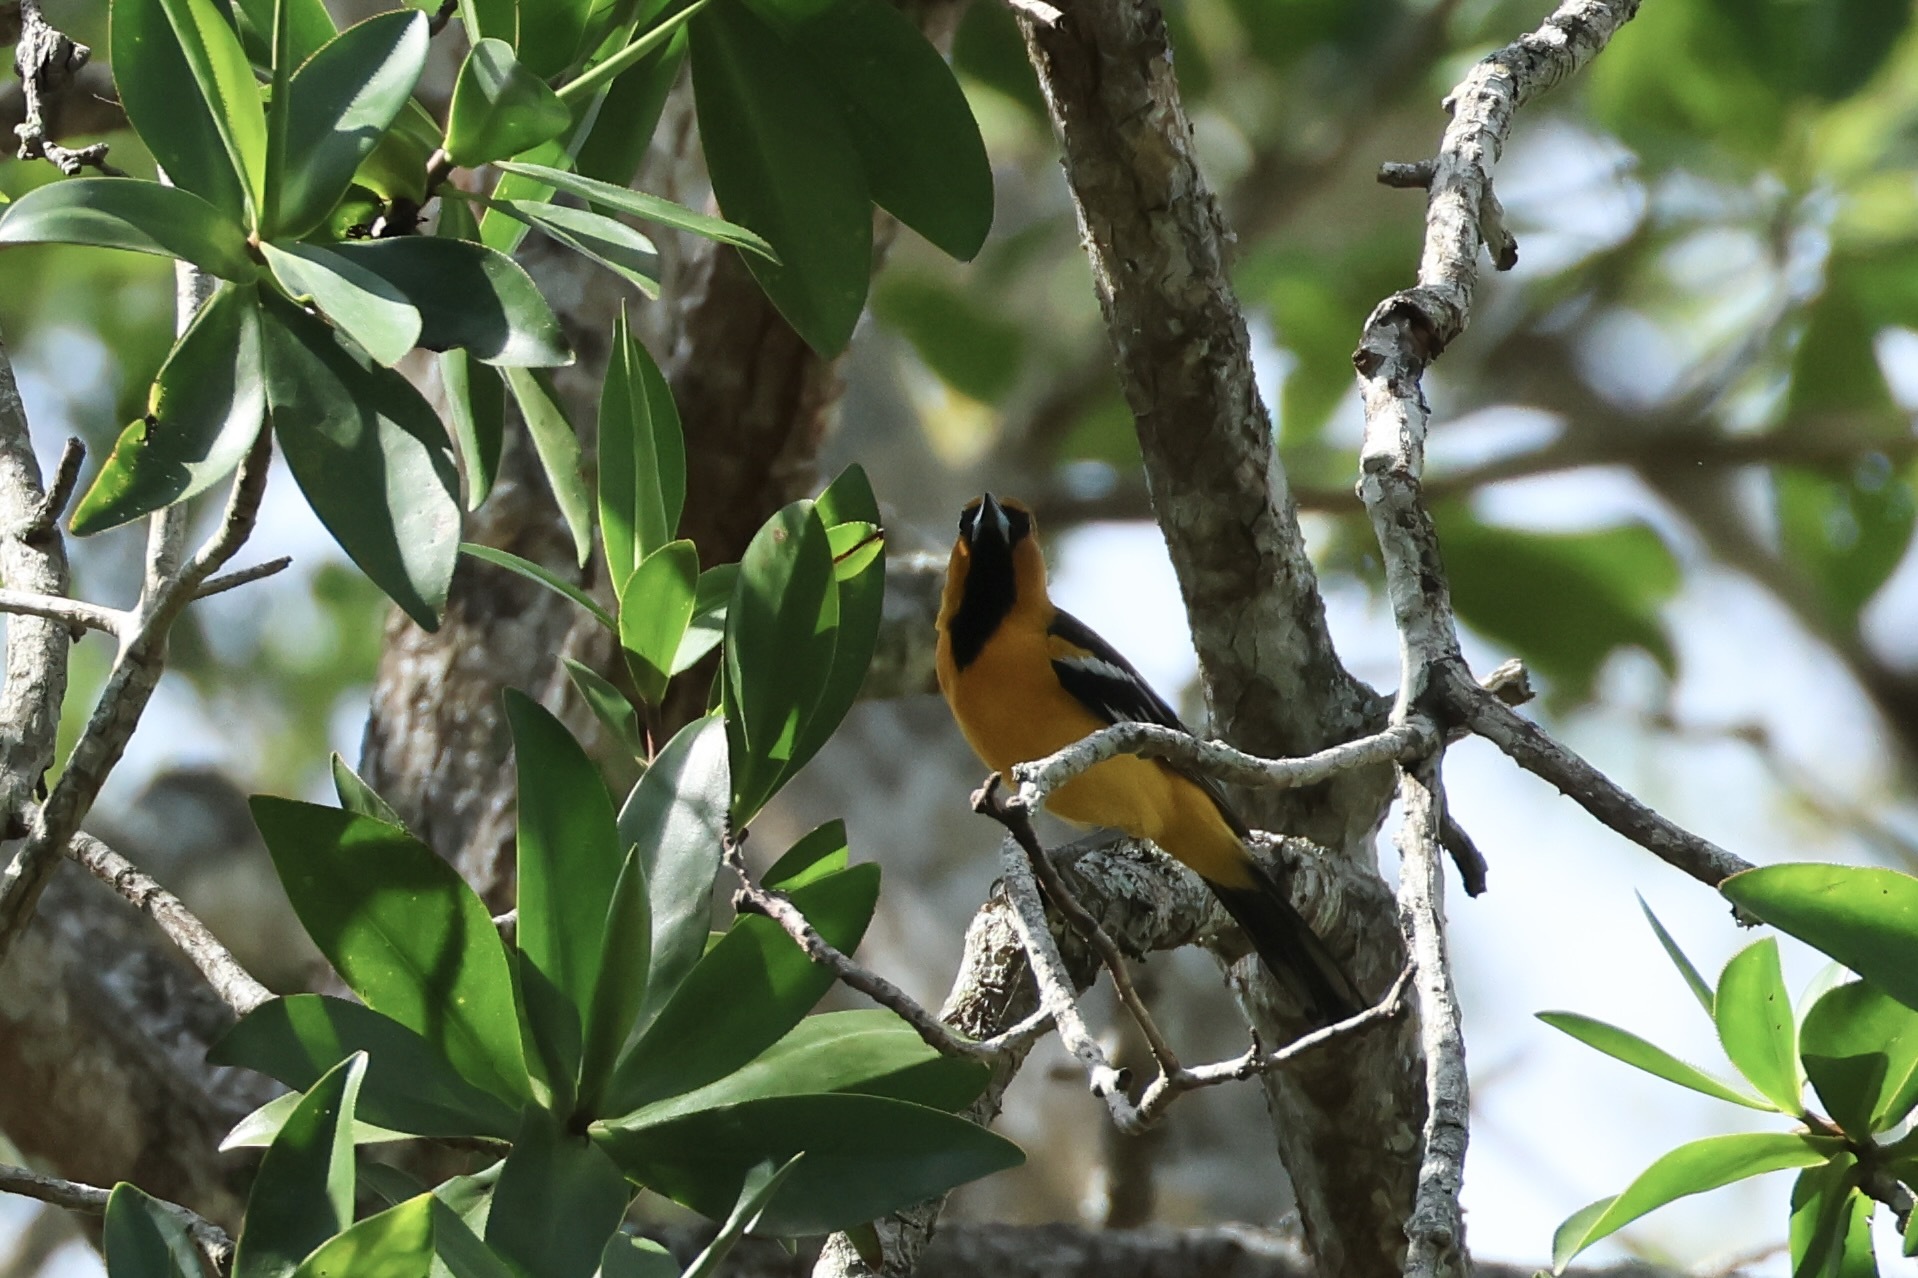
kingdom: Animalia
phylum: Chordata
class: Aves
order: Passeriformes
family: Icteridae
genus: Icterus
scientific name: Icterus pustulatus
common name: Streak-backed oriole
